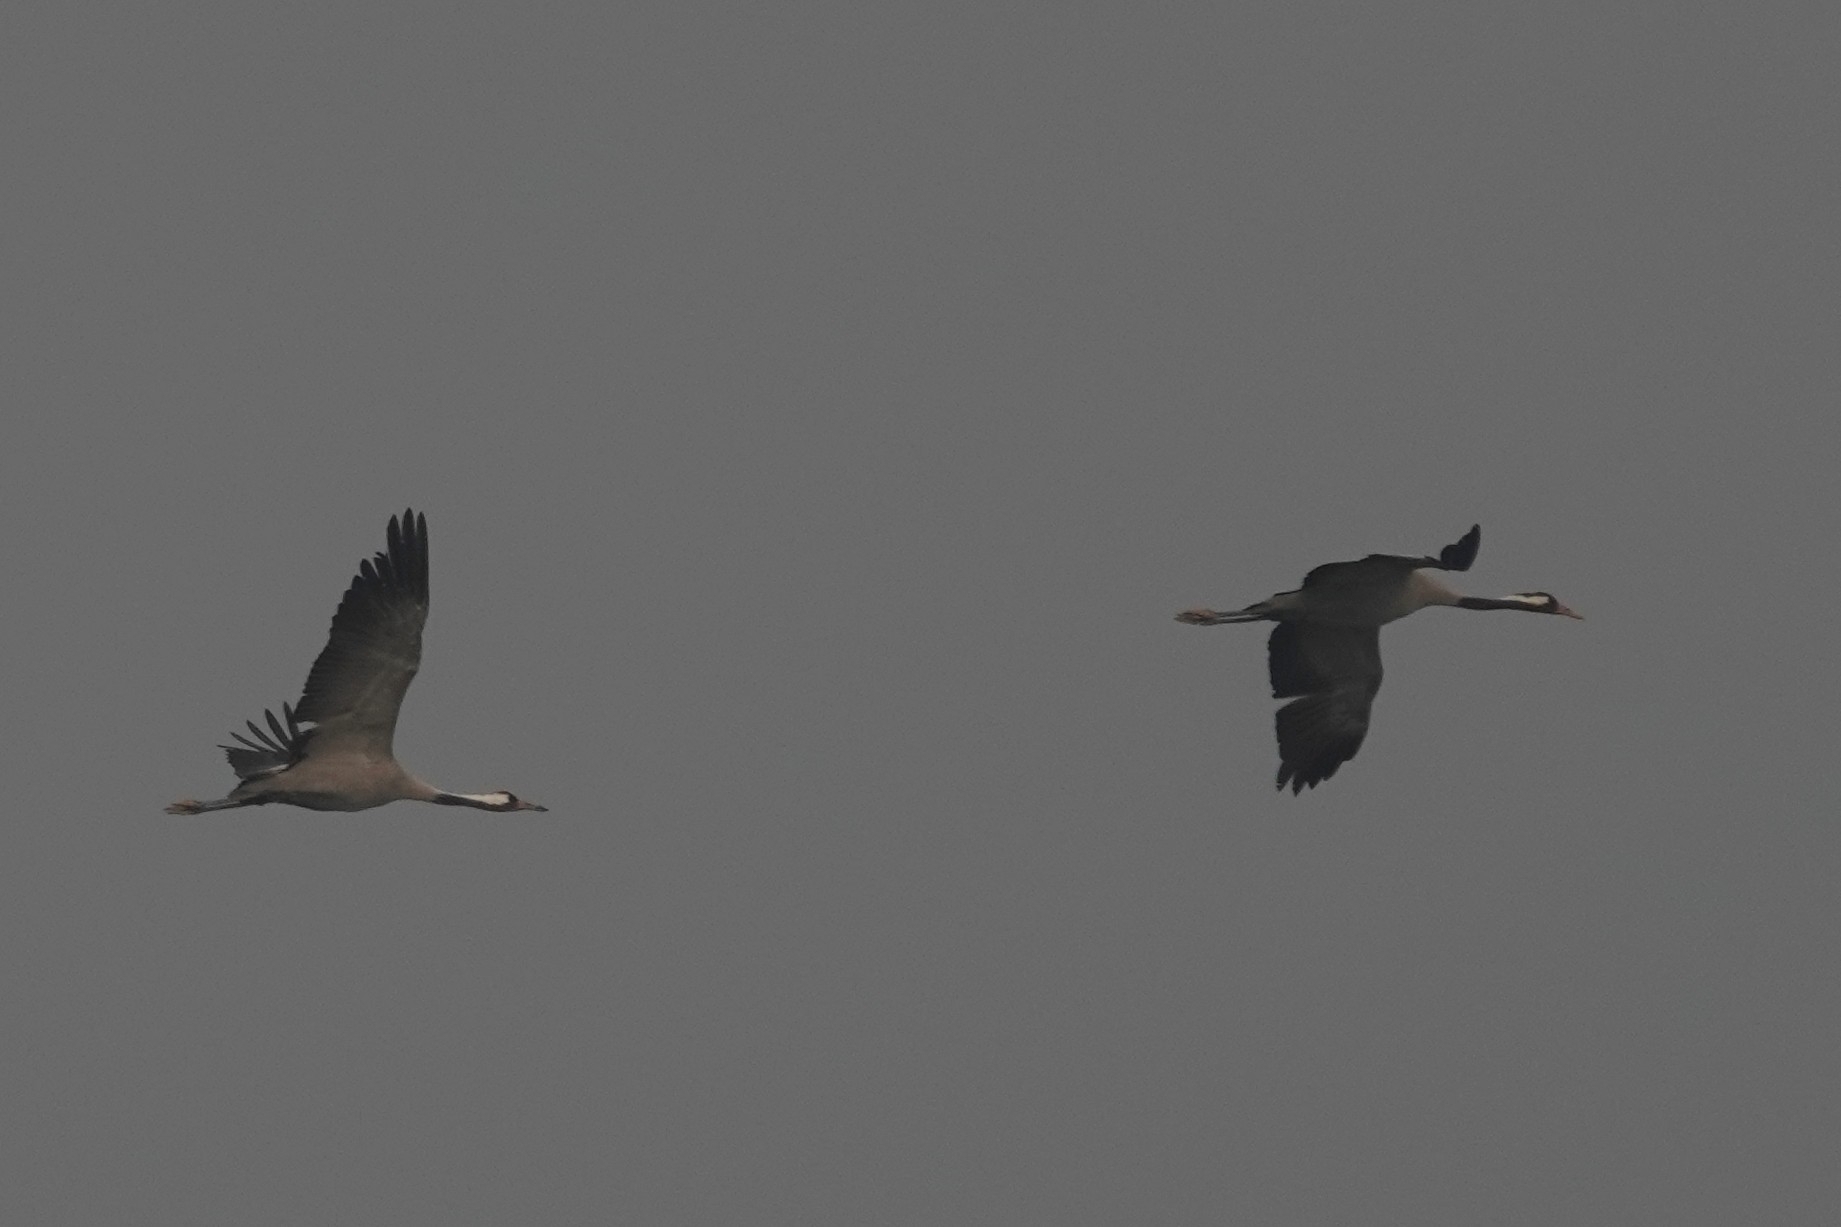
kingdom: Animalia
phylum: Chordata
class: Aves
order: Gruiformes
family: Gruidae
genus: Grus
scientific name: Grus grus
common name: Common crane
